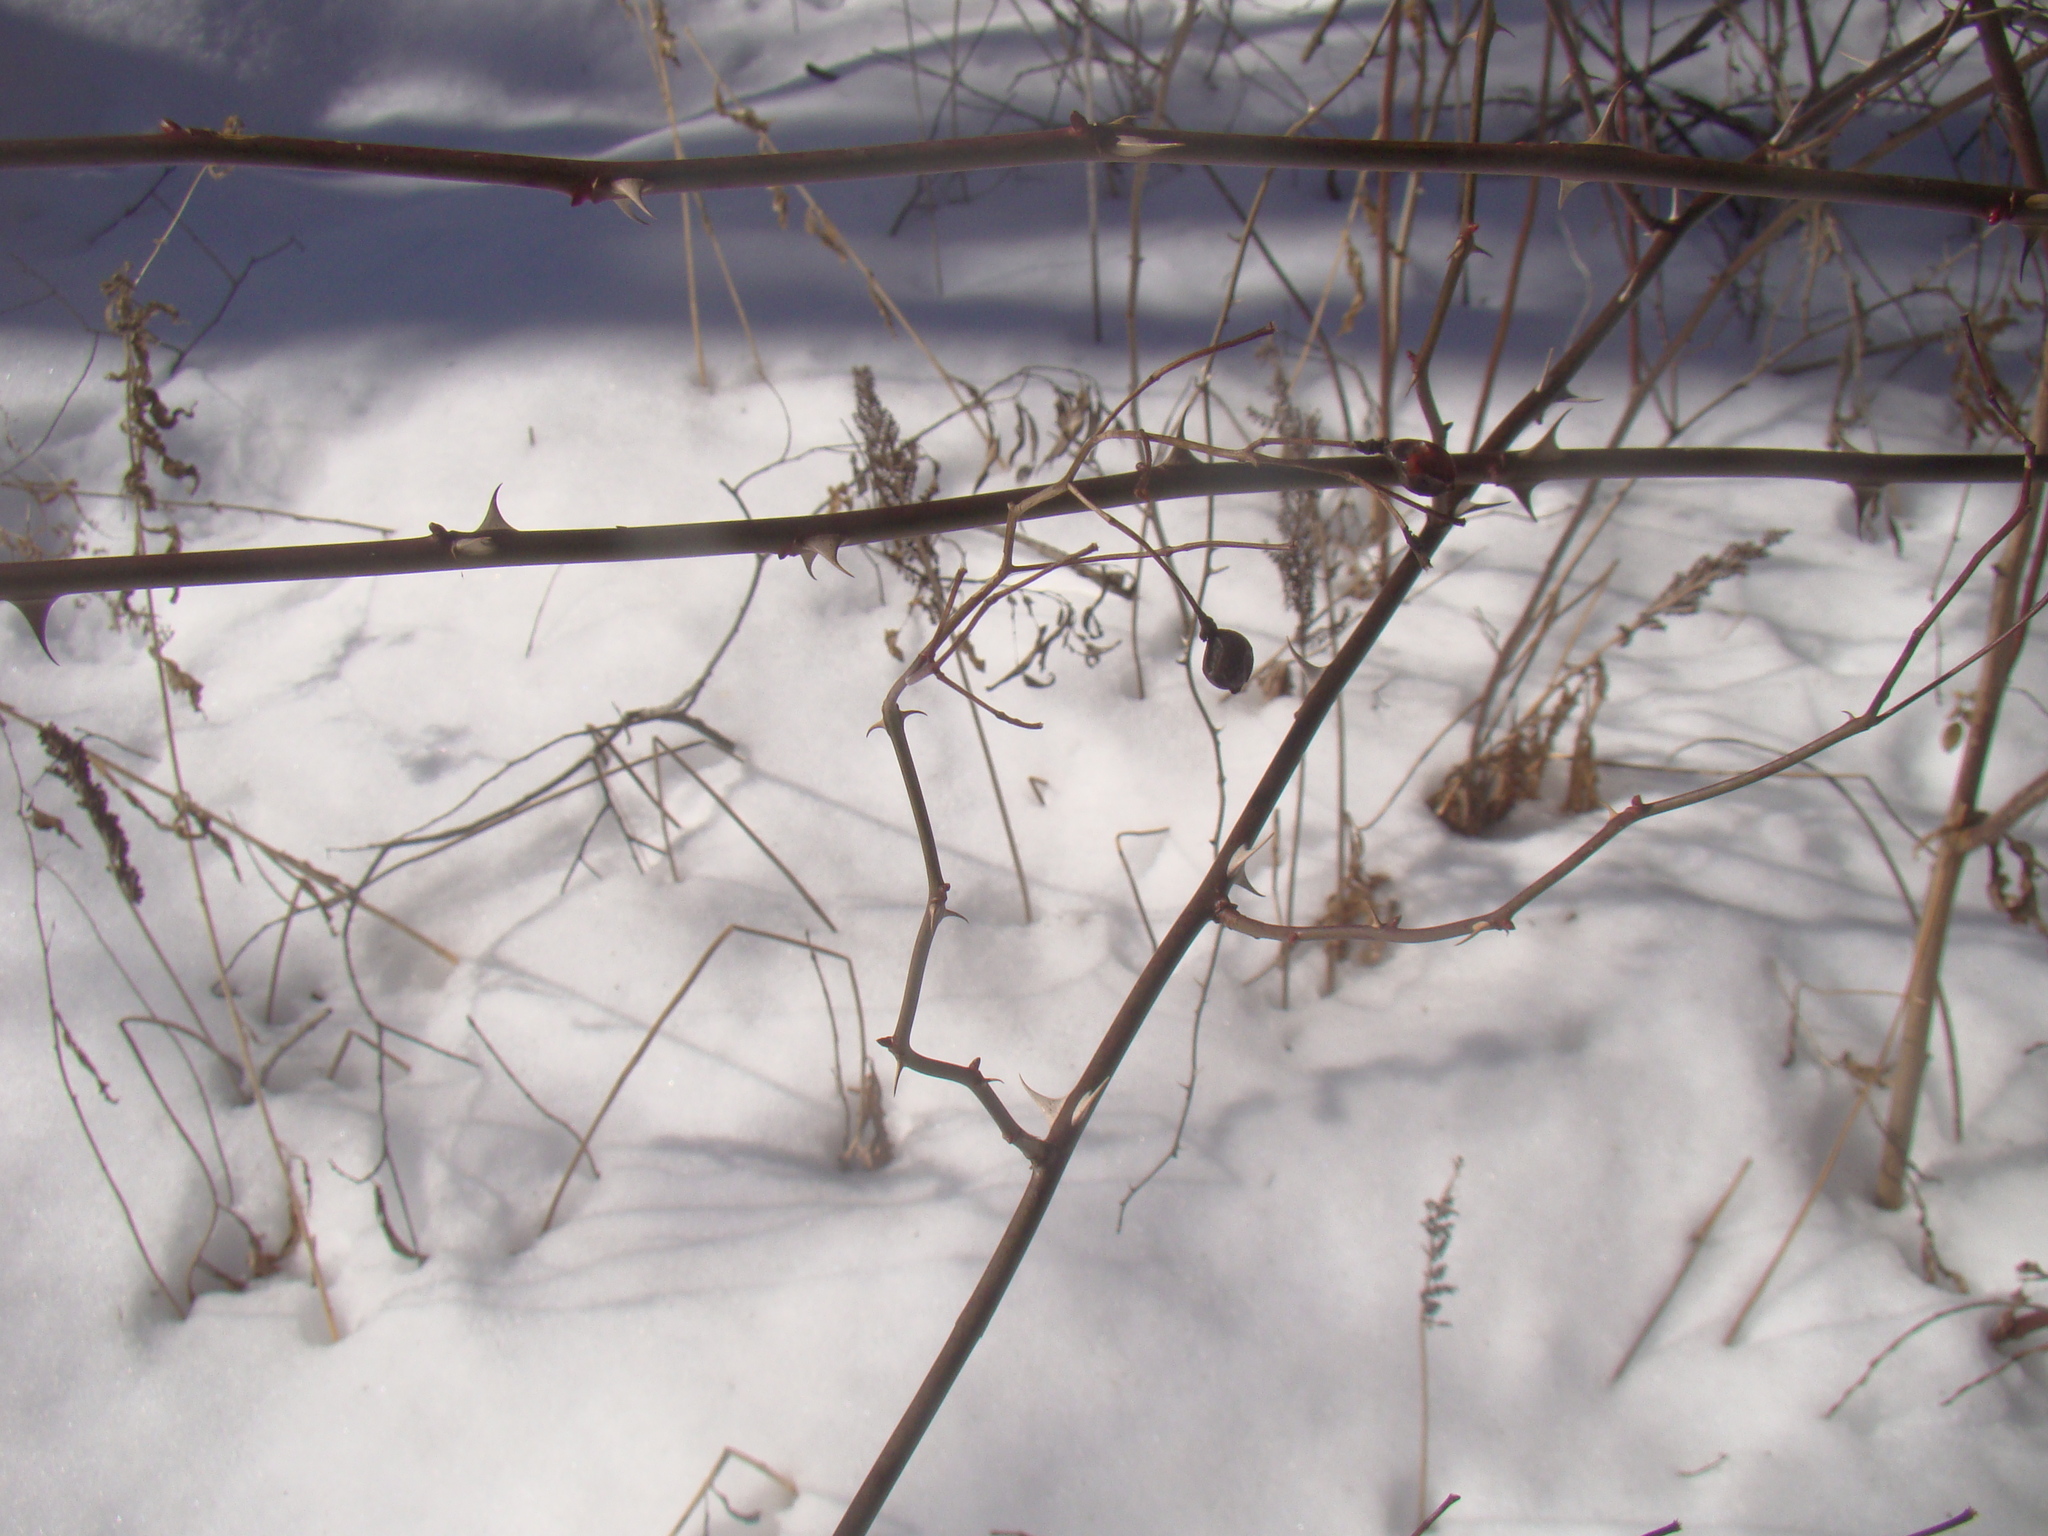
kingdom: Plantae
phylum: Tracheophyta
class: Magnoliopsida
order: Rosales
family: Rosaceae
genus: Rosa
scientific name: Rosa multiflora
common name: Multiflora rose
